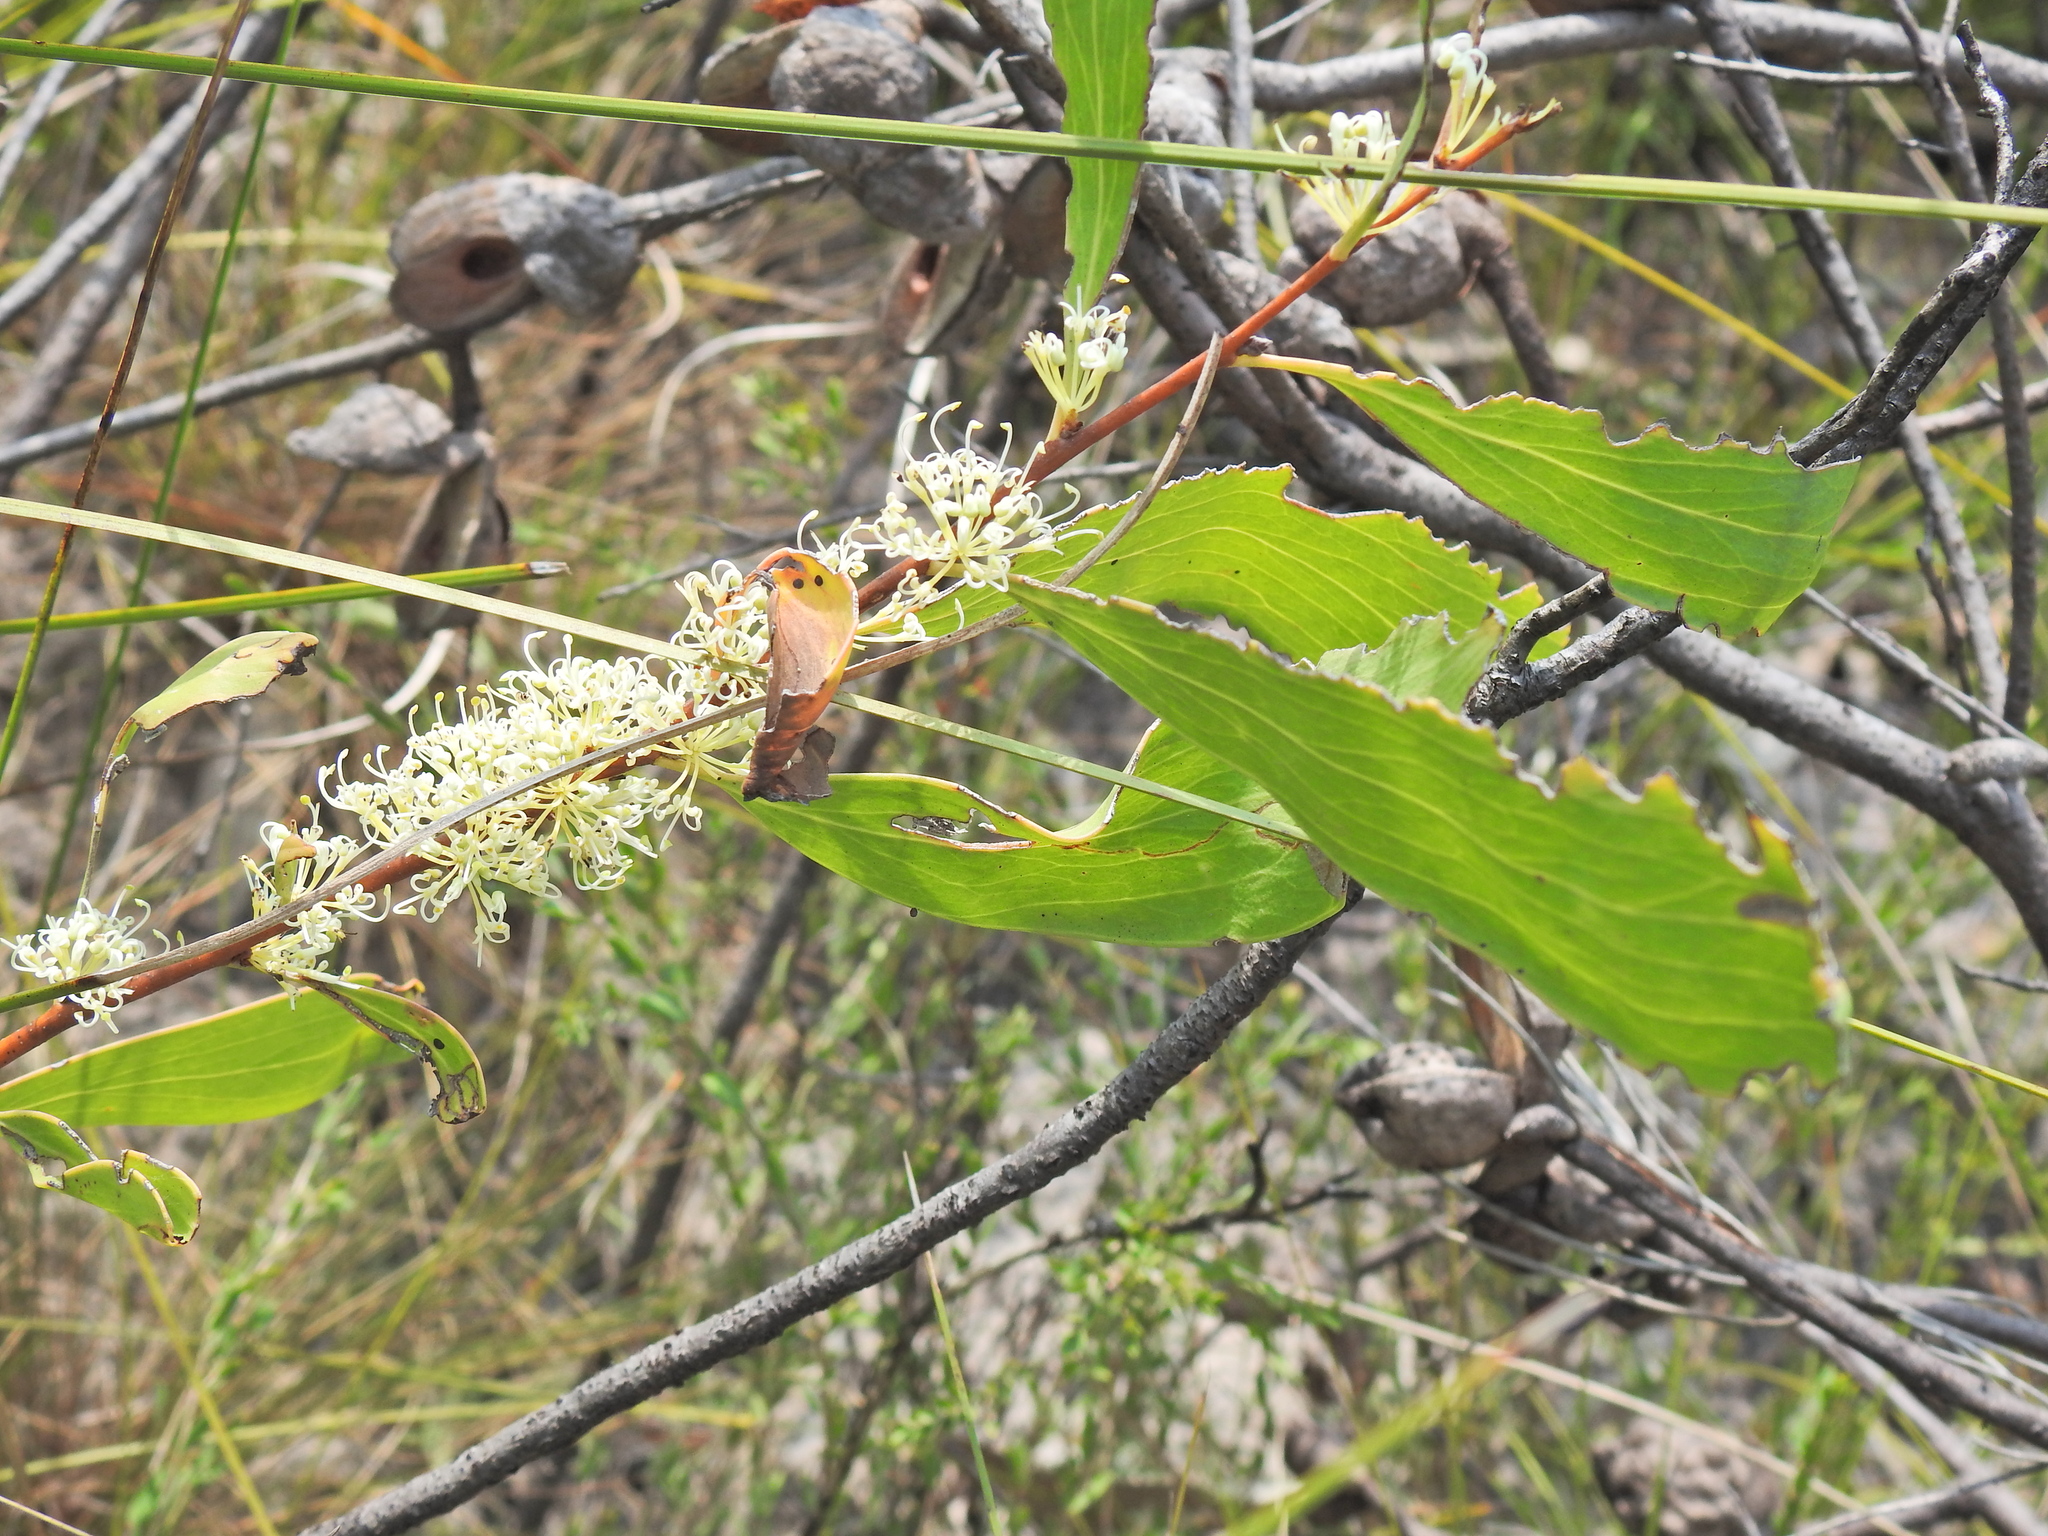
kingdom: Plantae
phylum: Tracheophyta
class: Magnoliopsida
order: Proteales
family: Proteaceae
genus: Hakea
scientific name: Hakea florulenta
